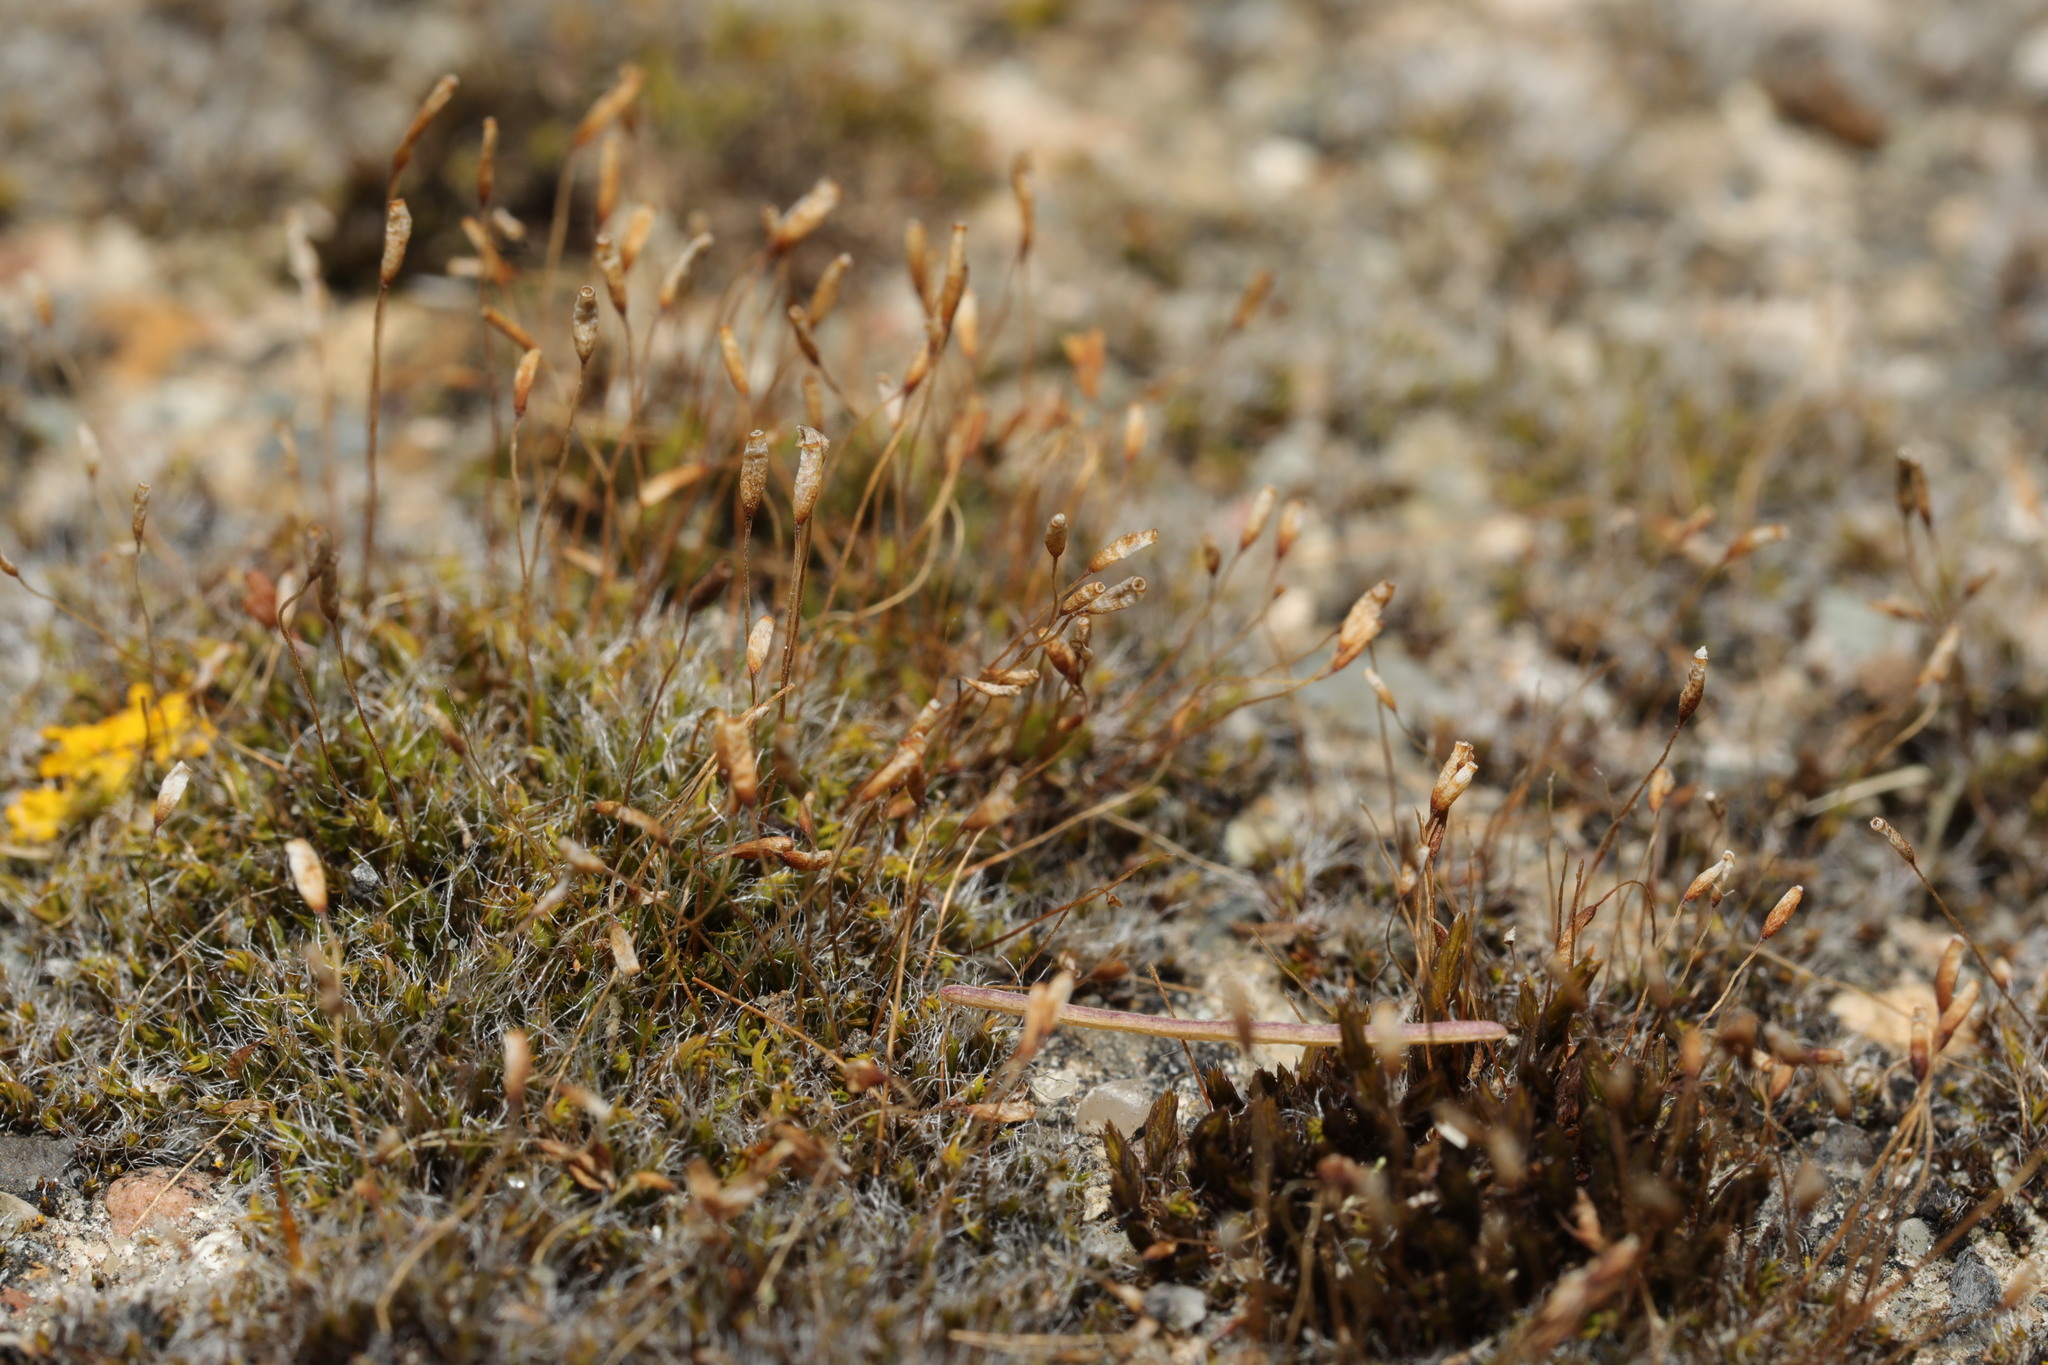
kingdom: Plantae
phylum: Bryophyta
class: Bryopsida
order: Pottiales
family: Pottiaceae
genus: Tortula
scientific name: Tortula muralis
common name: Wall screw-moss
